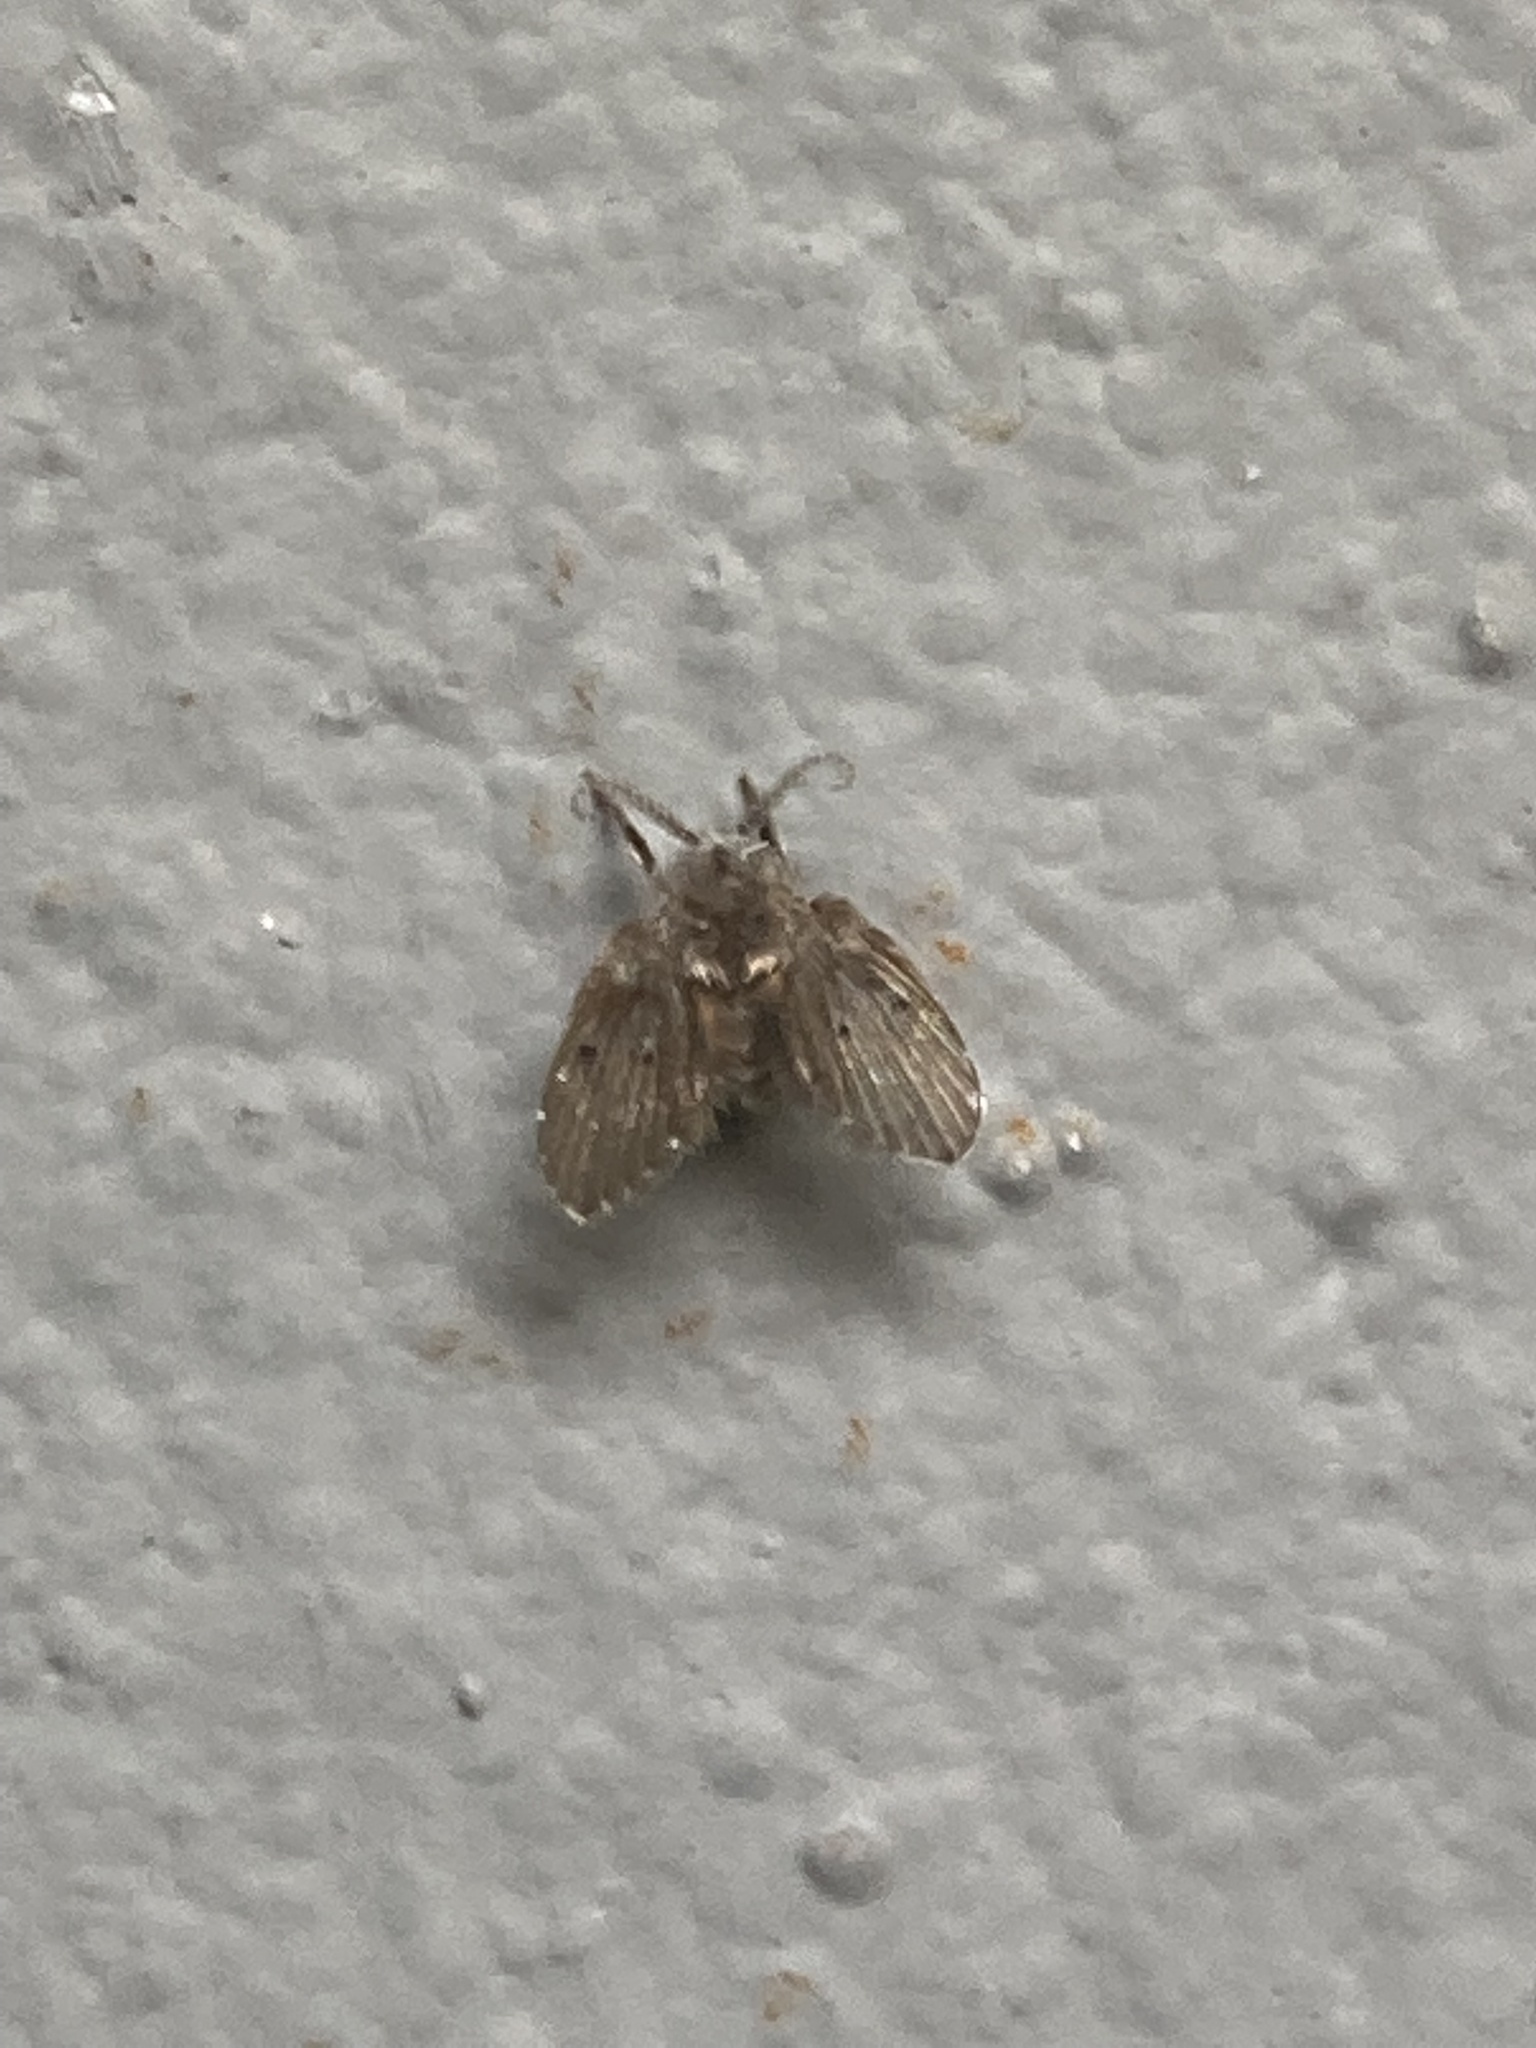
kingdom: Animalia
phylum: Arthropoda
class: Insecta
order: Diptera
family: Psychodidae
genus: Clogmia
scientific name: Clogmia albipunctatus
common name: White-spotted moth fly
